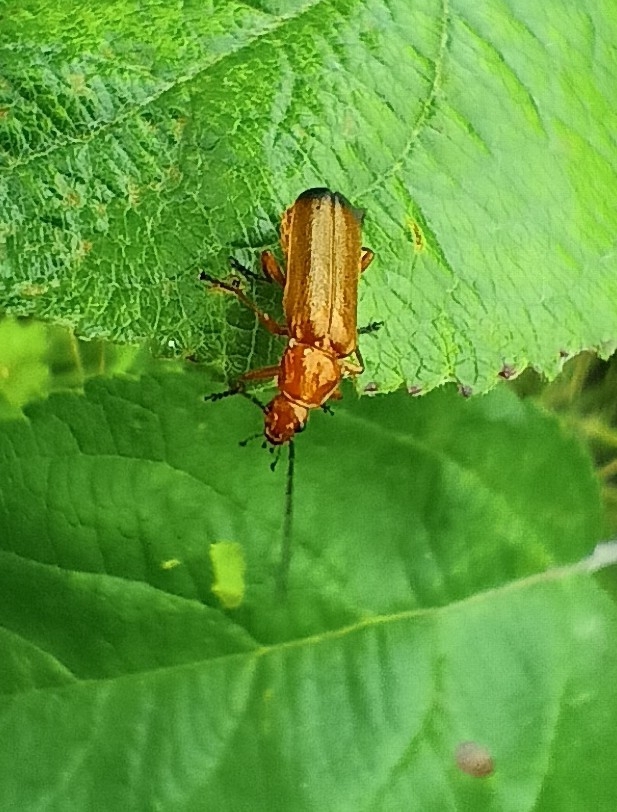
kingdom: Animalia
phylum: Arthropoda
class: Insecta
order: Coleoptera
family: Cantharidae
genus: Rhagonycha
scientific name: Rhagonycha fulva
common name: Common red soldier beetle
